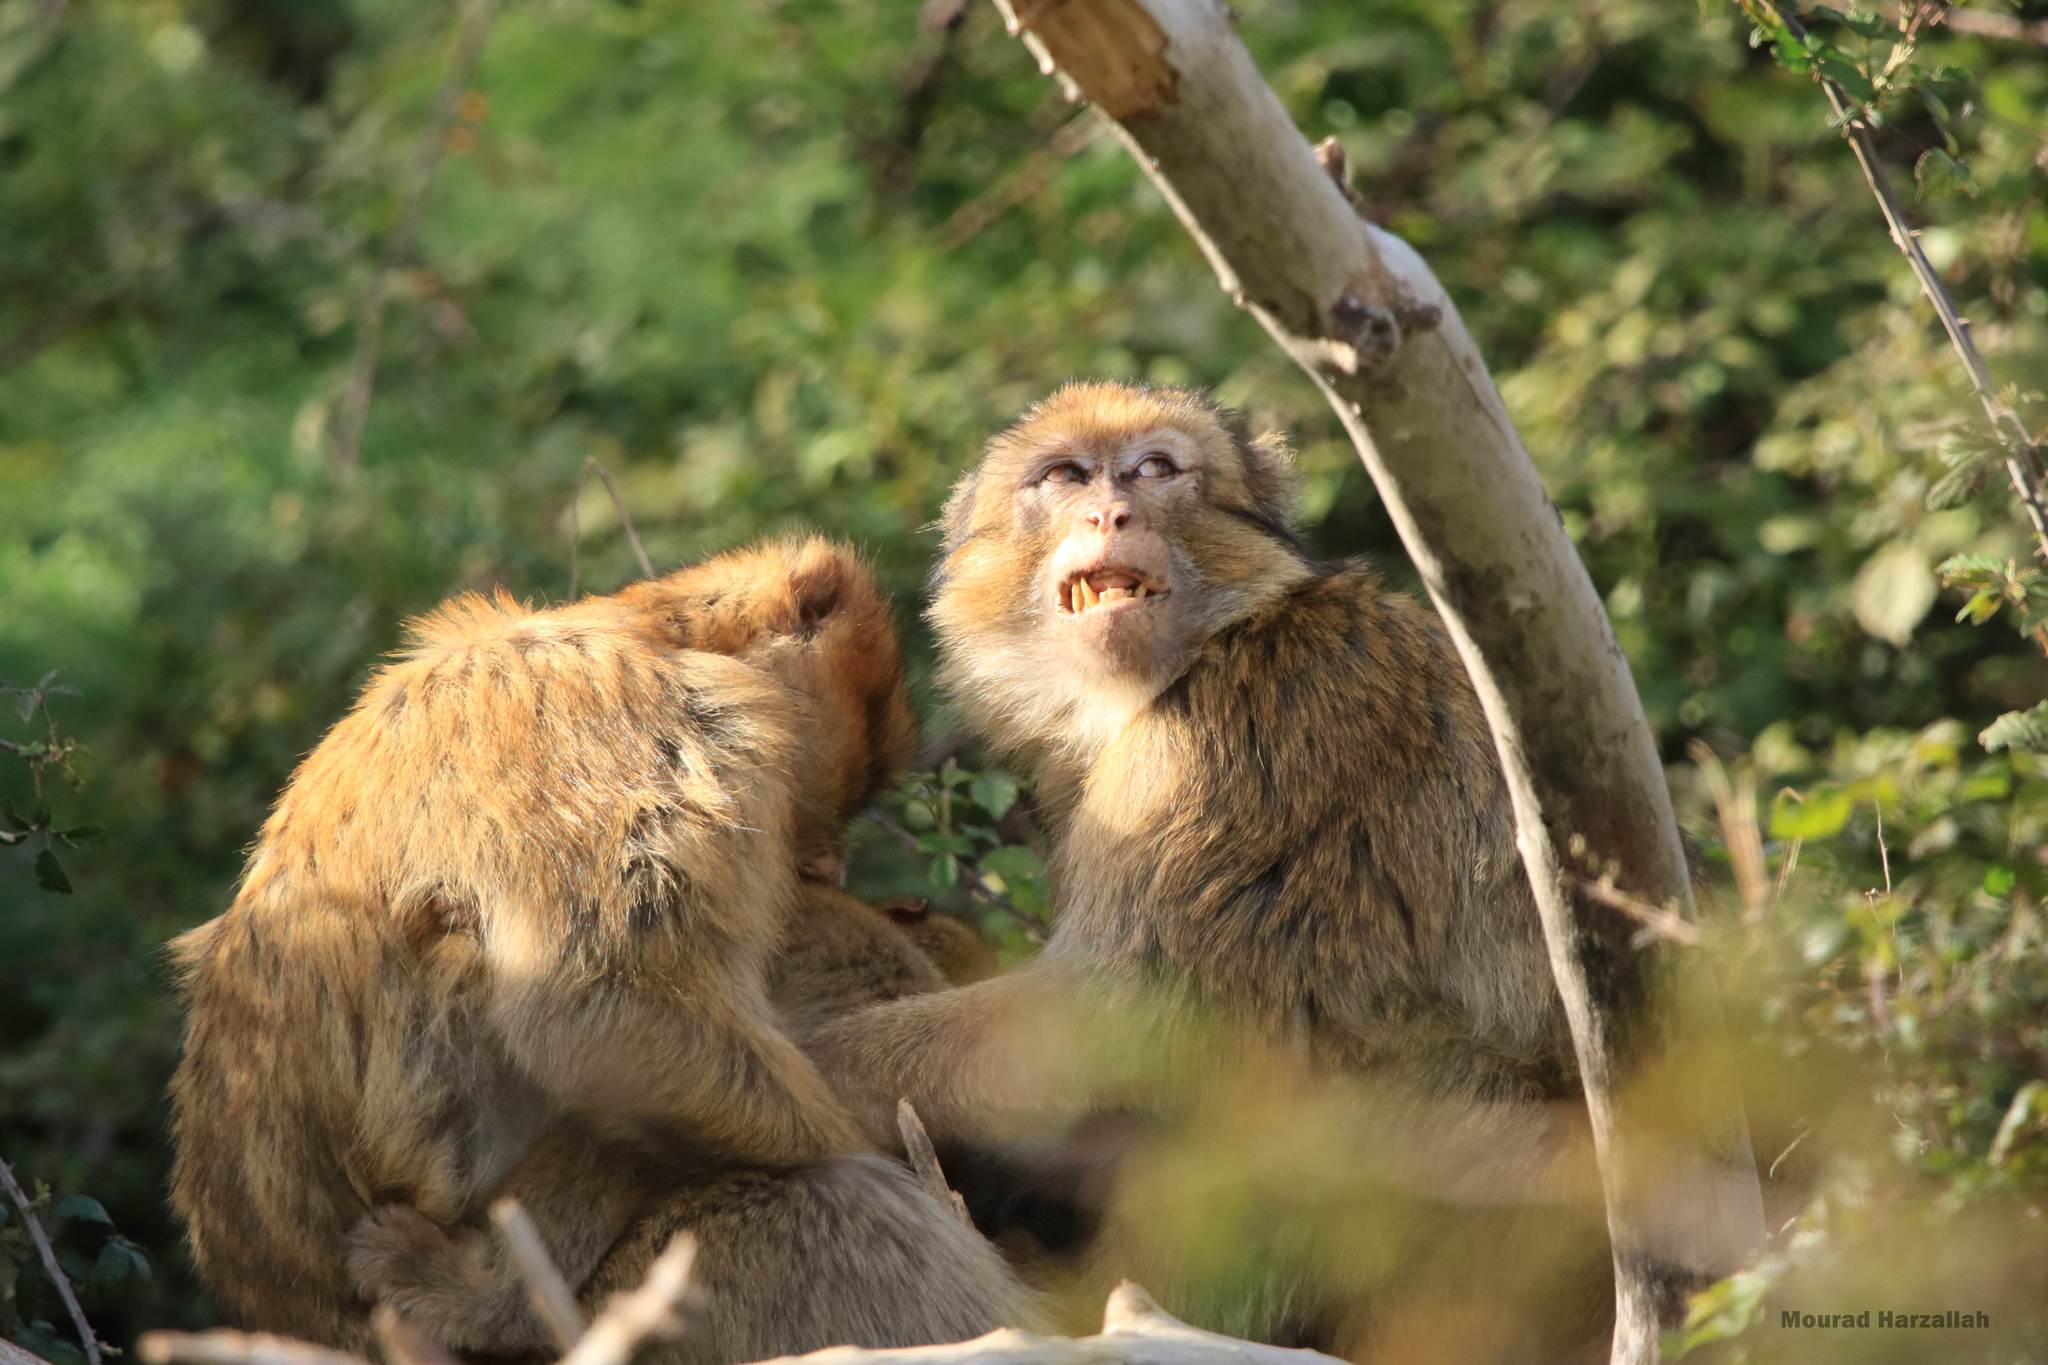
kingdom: Animalia
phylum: Chordata
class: Mammalia
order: Primates
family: Cercopithecidae
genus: Macaca
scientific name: Macaca sylvanus
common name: Barbary macaque
